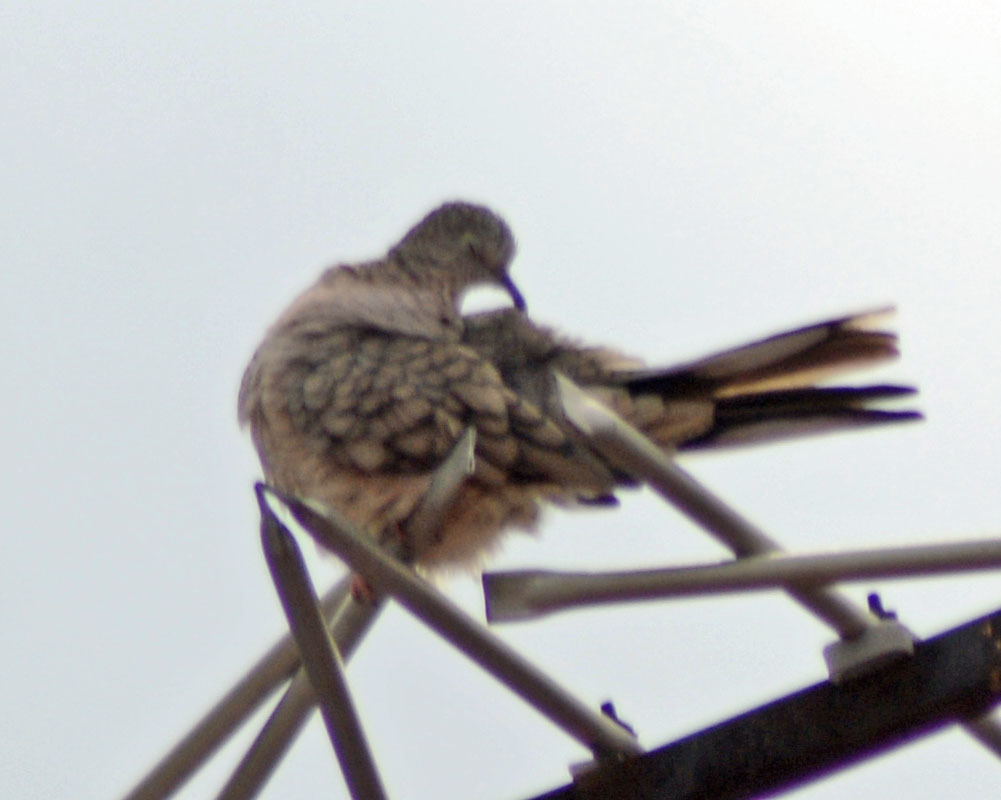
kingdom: Animalia
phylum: Chordata
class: Aves
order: Columbiformes
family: Columbidae
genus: Columbina
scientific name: Columbina inca
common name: Inca dove
